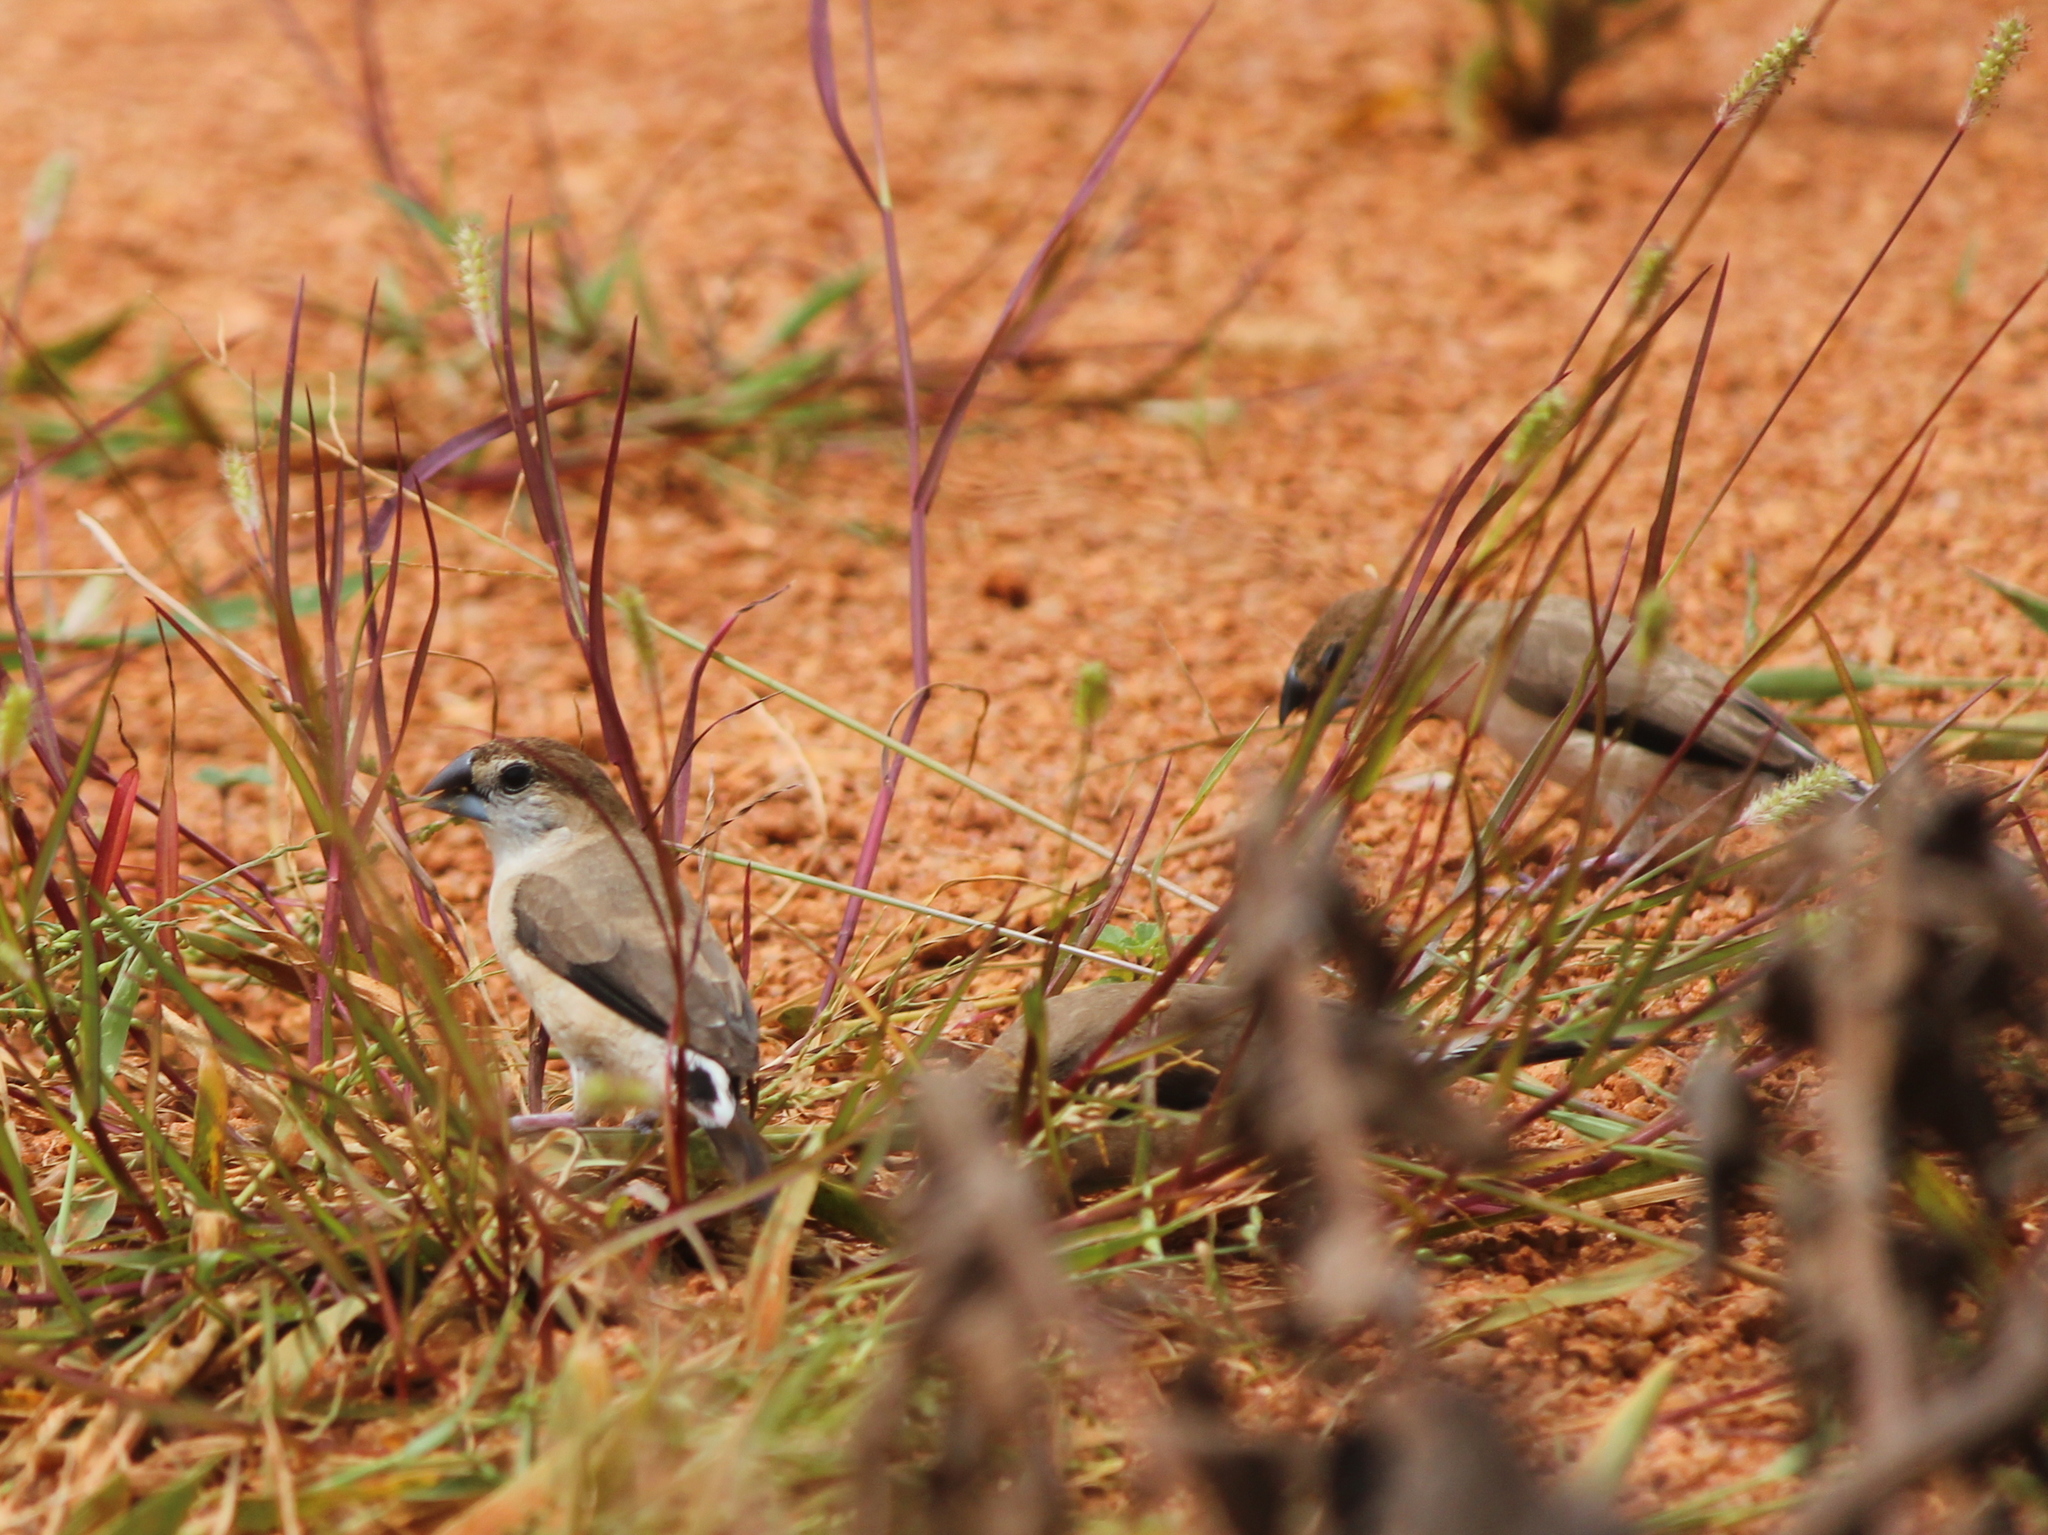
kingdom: Animalia
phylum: Chordata
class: Aves
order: Passeriformes
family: Estrildidae
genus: Euodice
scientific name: Euodice malabarica
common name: Indian silverbill
